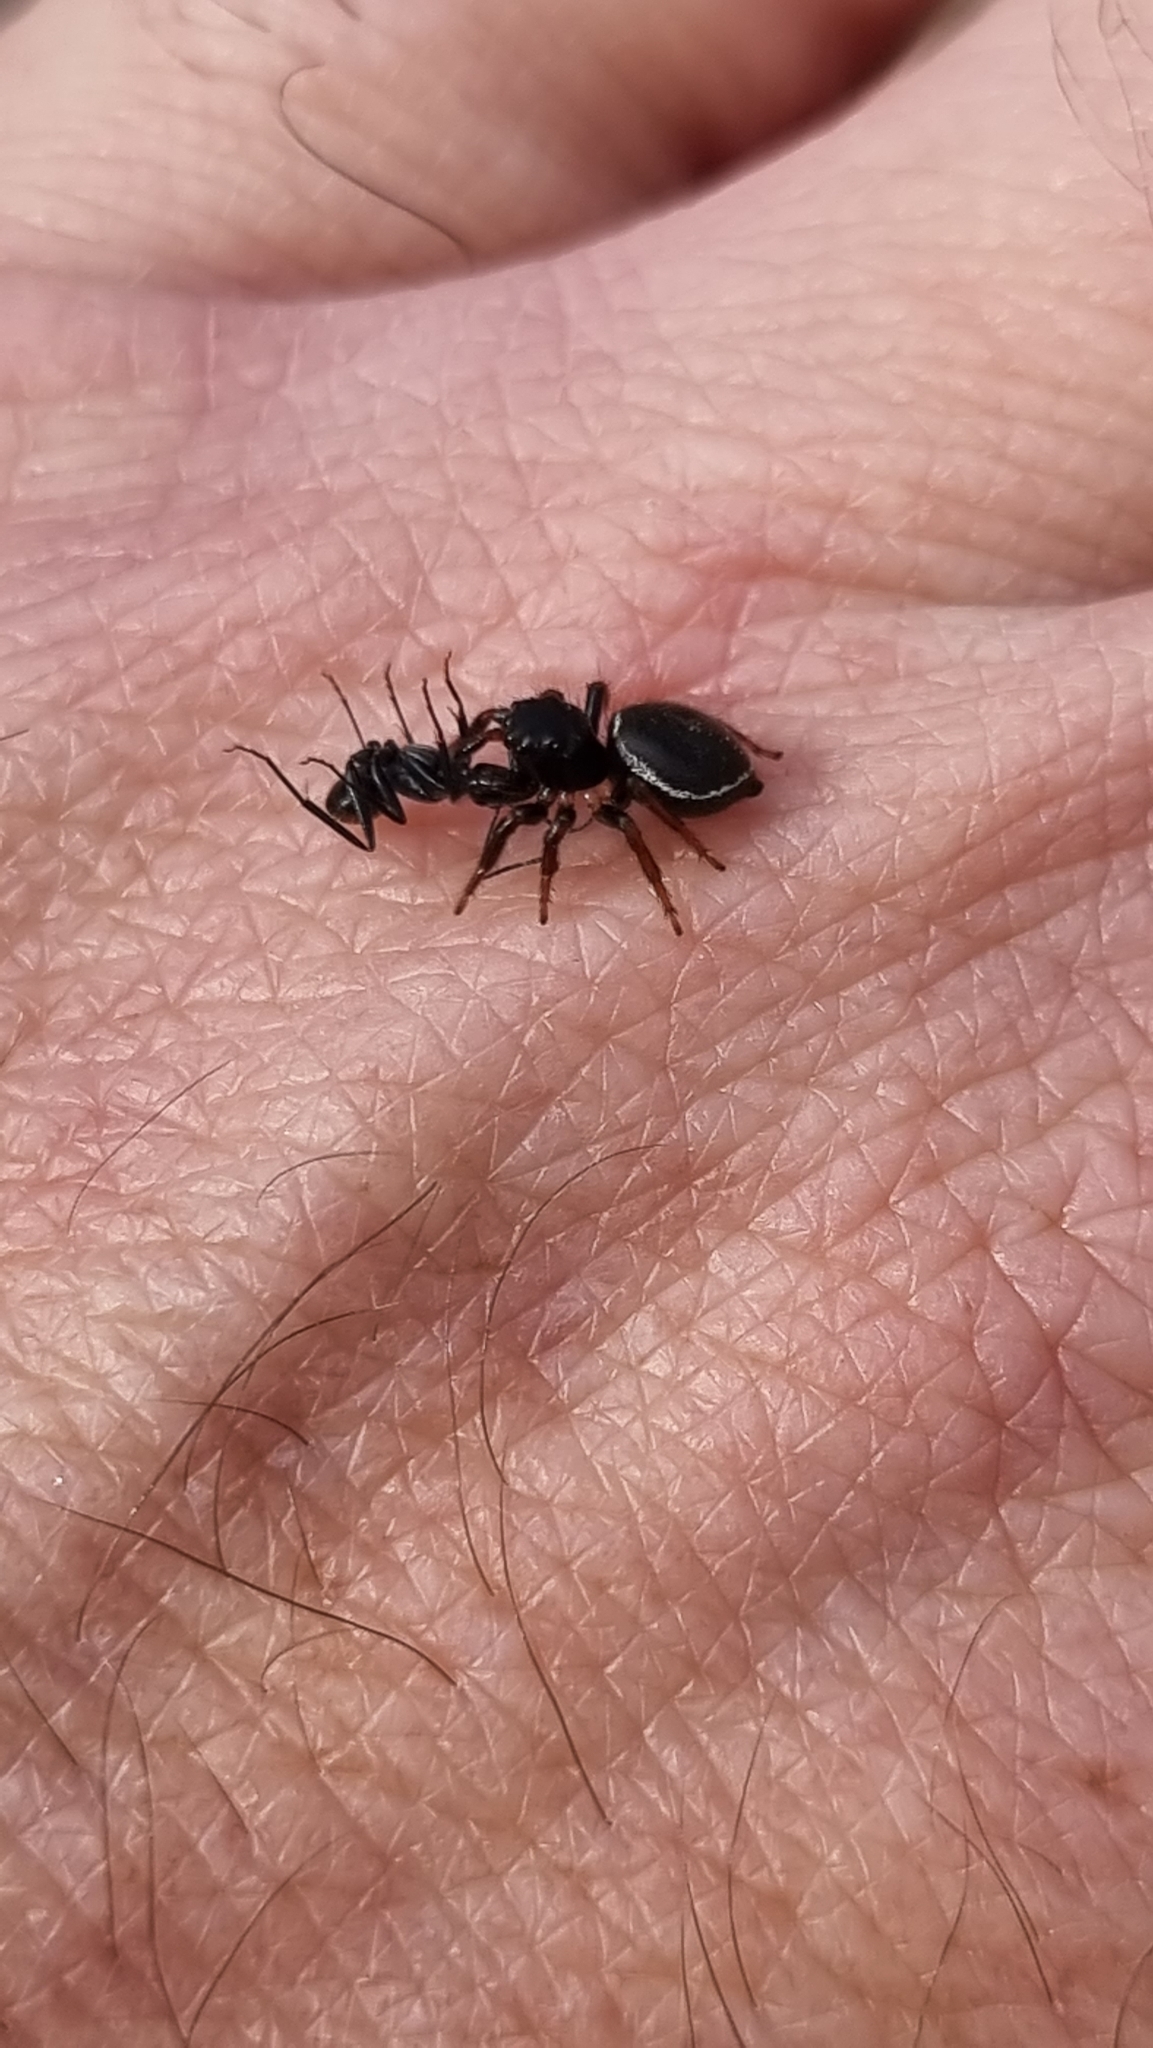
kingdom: Animalia
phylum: Arthropoda
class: Arachnida
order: Araneae
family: Salticidae
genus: Zenodorus
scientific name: Zenodorus orbiculatus
